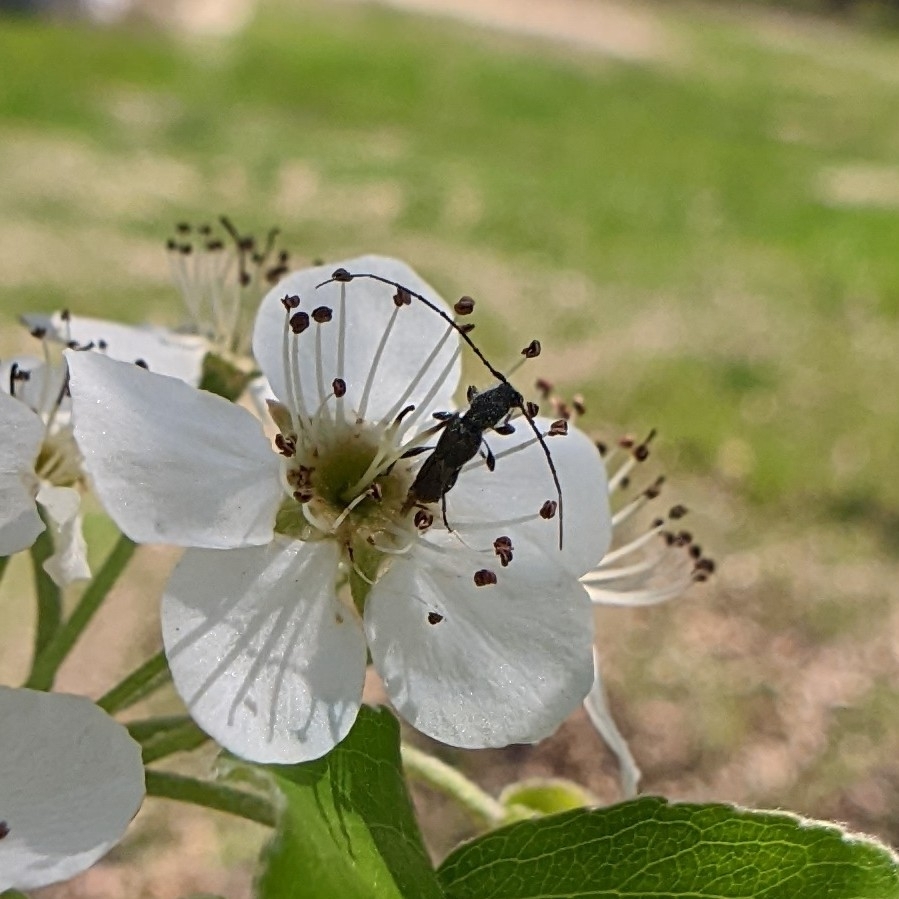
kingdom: Animalia
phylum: Arthropoda
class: Insecta
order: Coleoptera
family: Cerambycidae
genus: Molorchus
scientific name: Molorchus bimaculatus
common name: Bimaculate longhorn beetle
